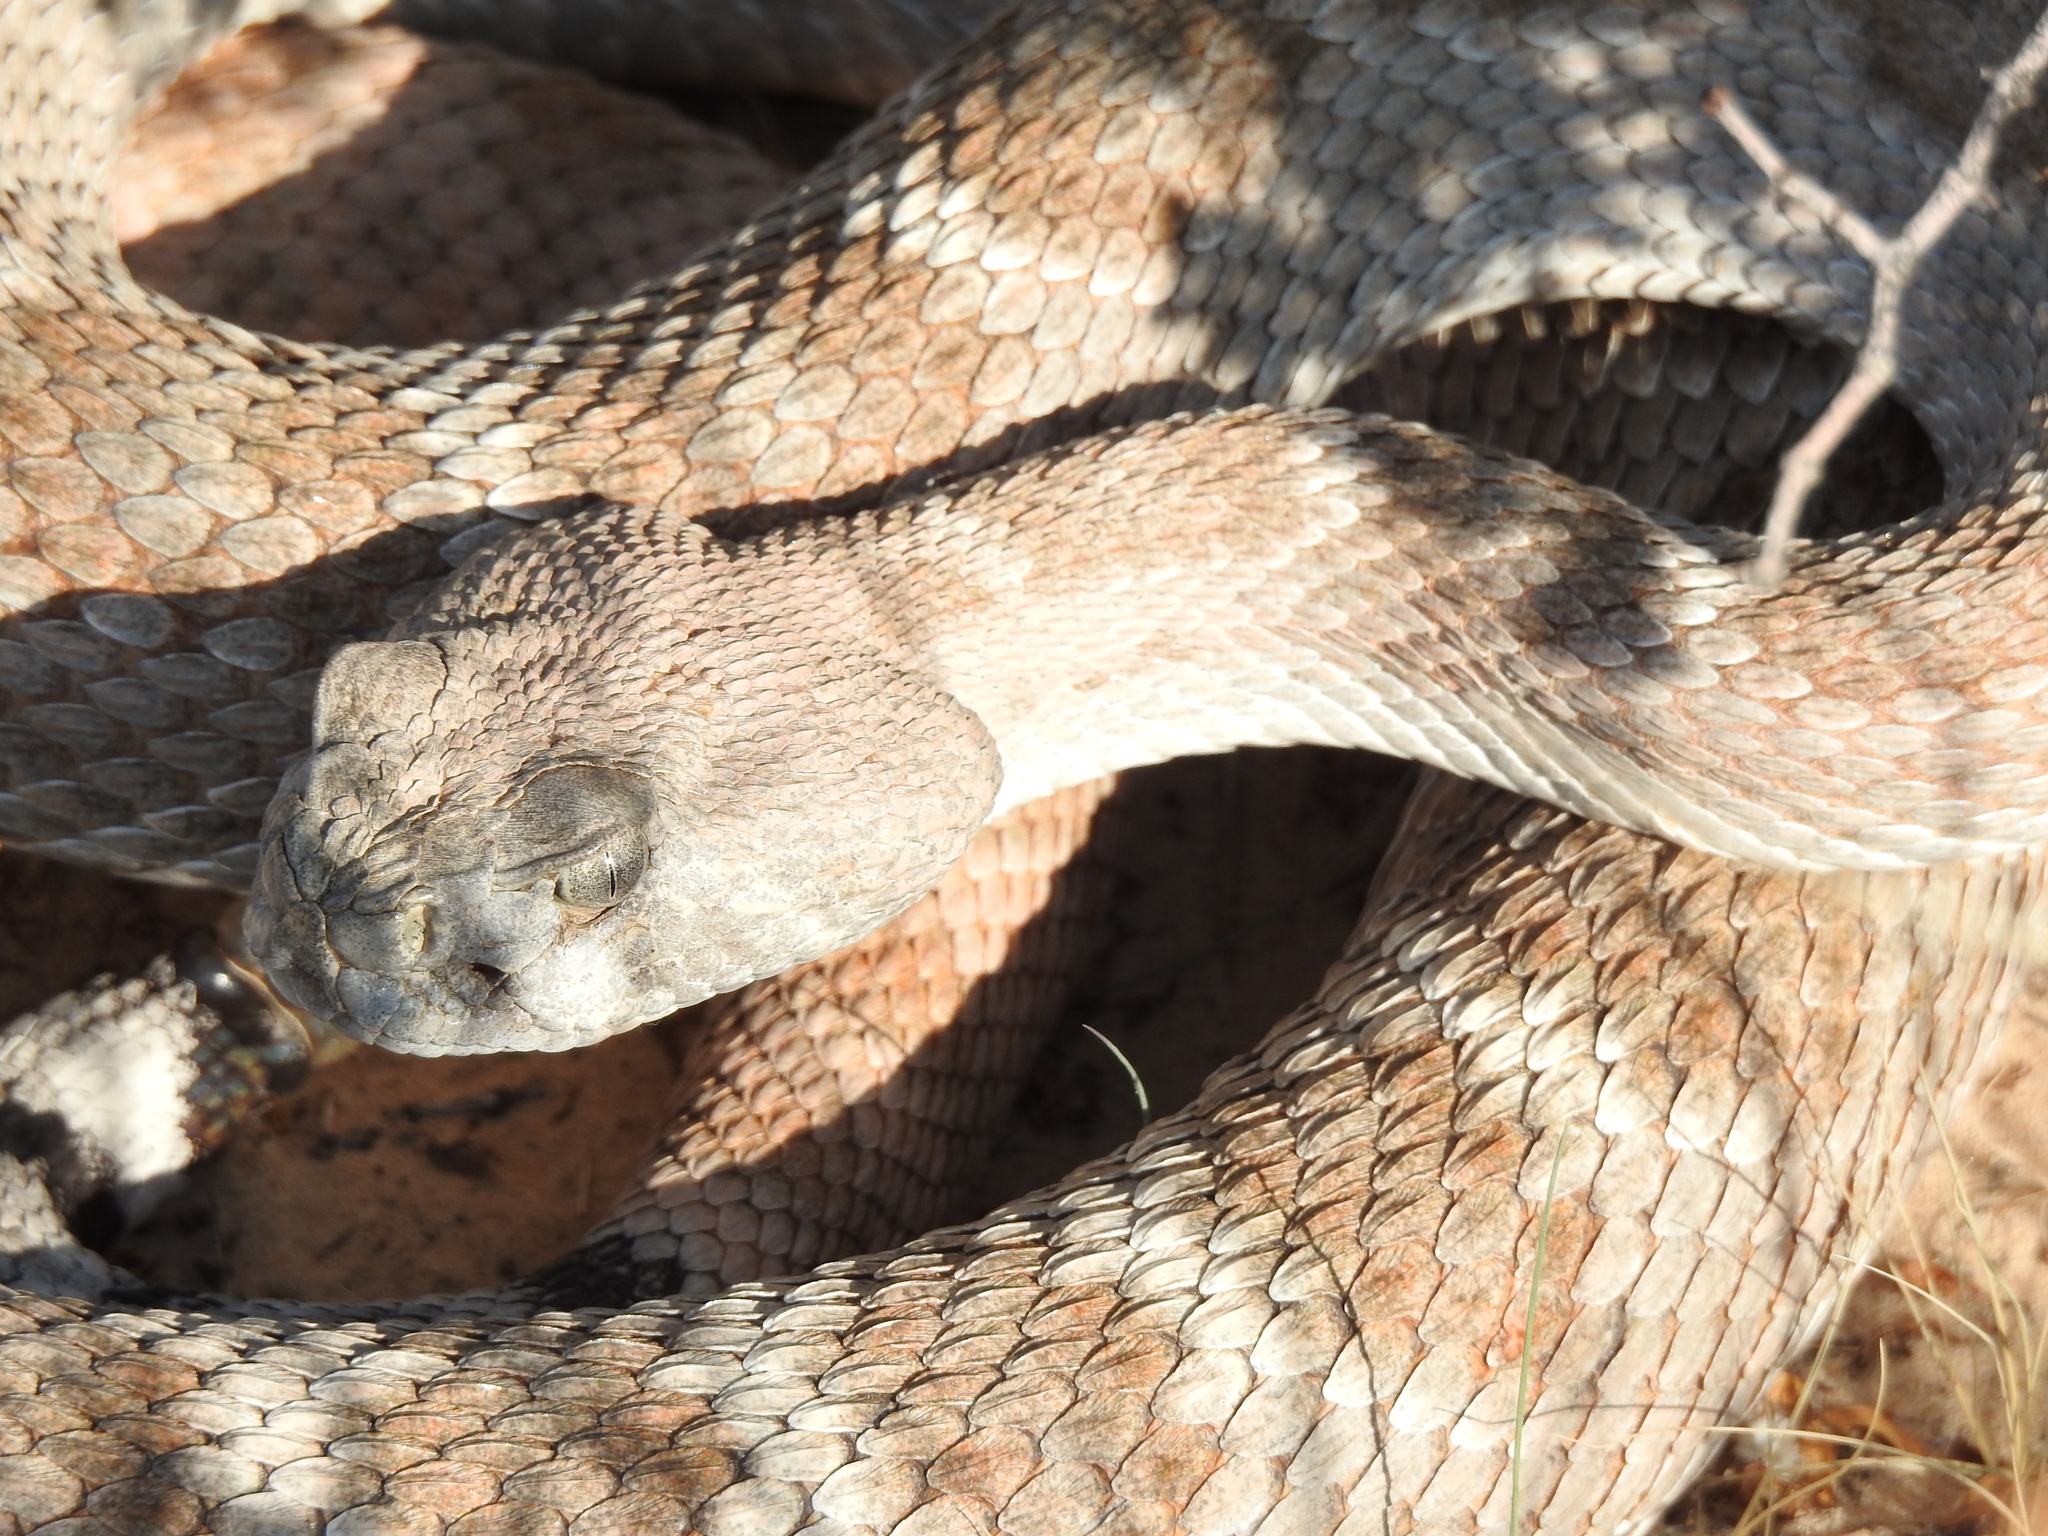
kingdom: Animalia
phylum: Chordata
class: Squamata
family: Viperidae
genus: Crotalus
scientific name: Crotalus atrox
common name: Western diamond-backed rattlesnake
